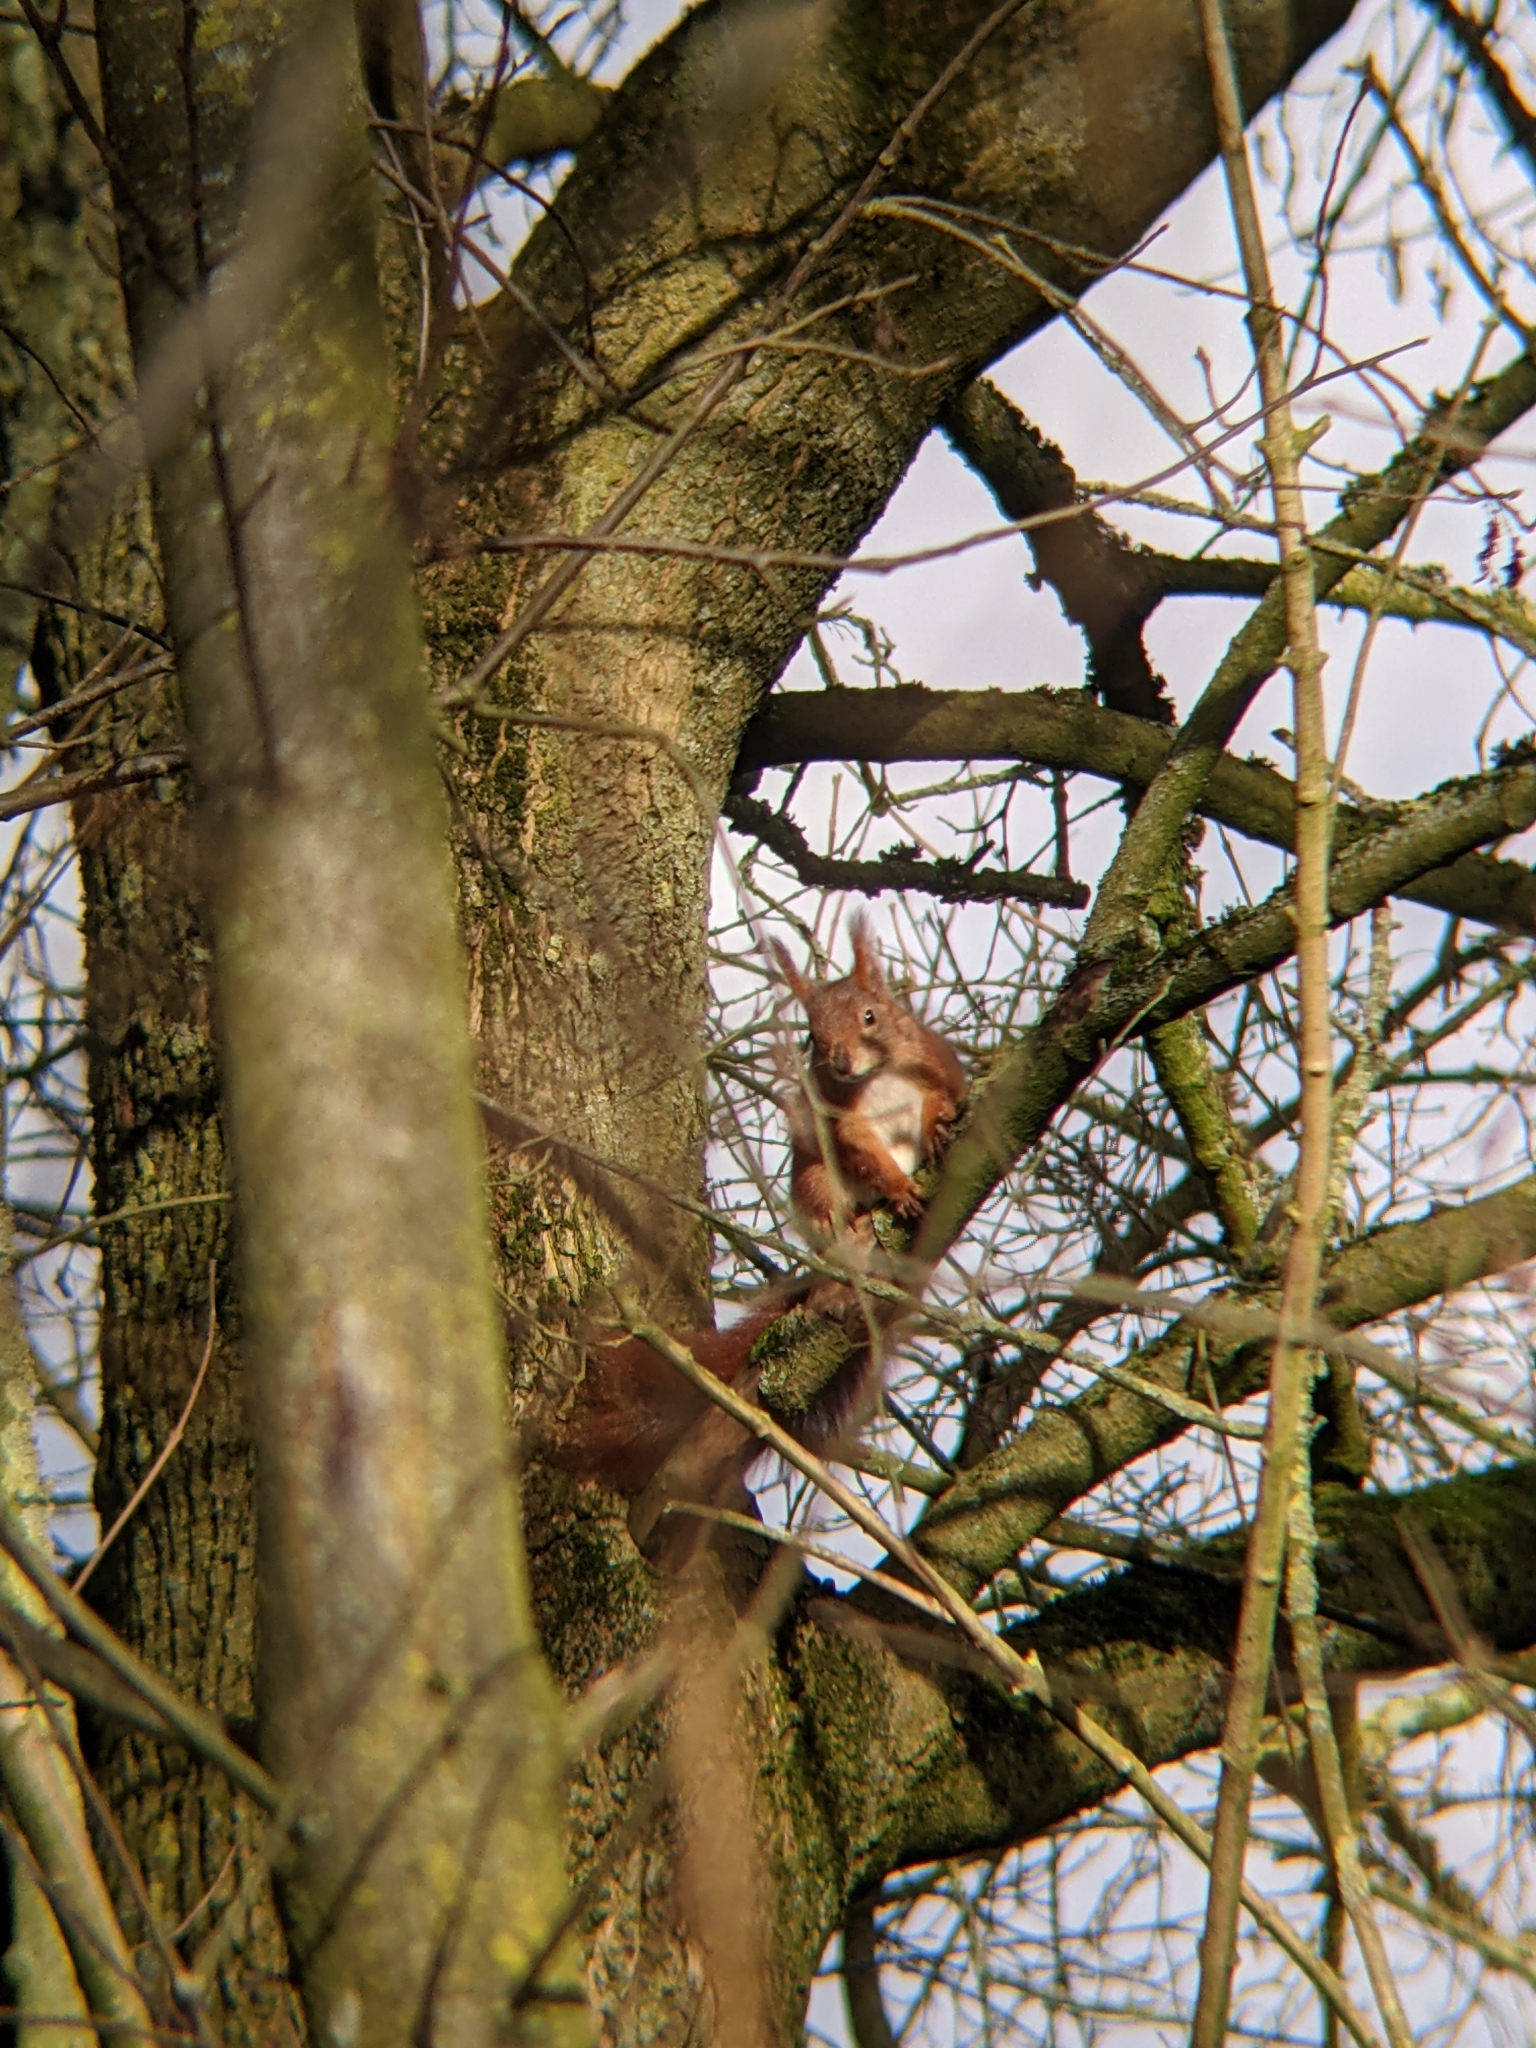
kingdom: Animalia
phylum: Chordata
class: Mammalia
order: Rodentia
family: Sciuridae
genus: Sciurus
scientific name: Sciurus vulgaris
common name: Eurasian red squirrel
